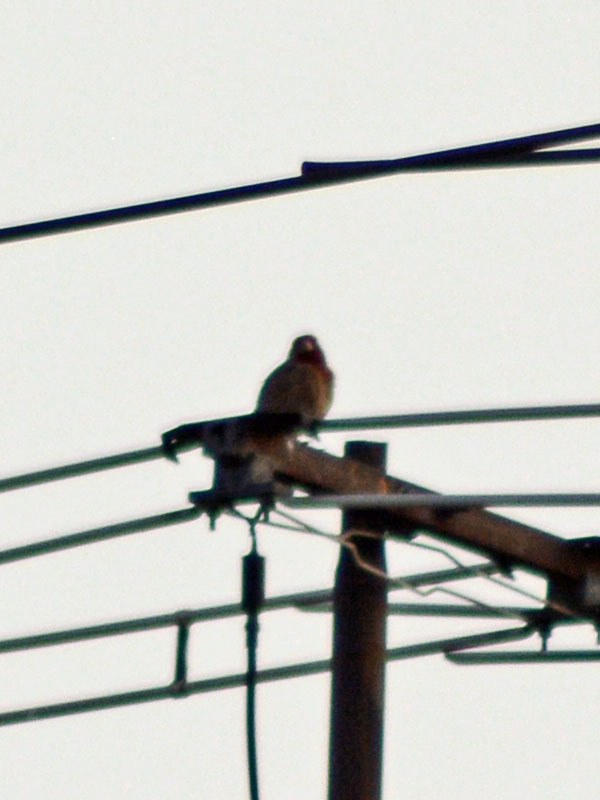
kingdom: Animalia
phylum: Chordata
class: Aves
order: Passeriformes
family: Fringillidae
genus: Haemorhous
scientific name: Haemorhous mexicanus
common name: House finch
